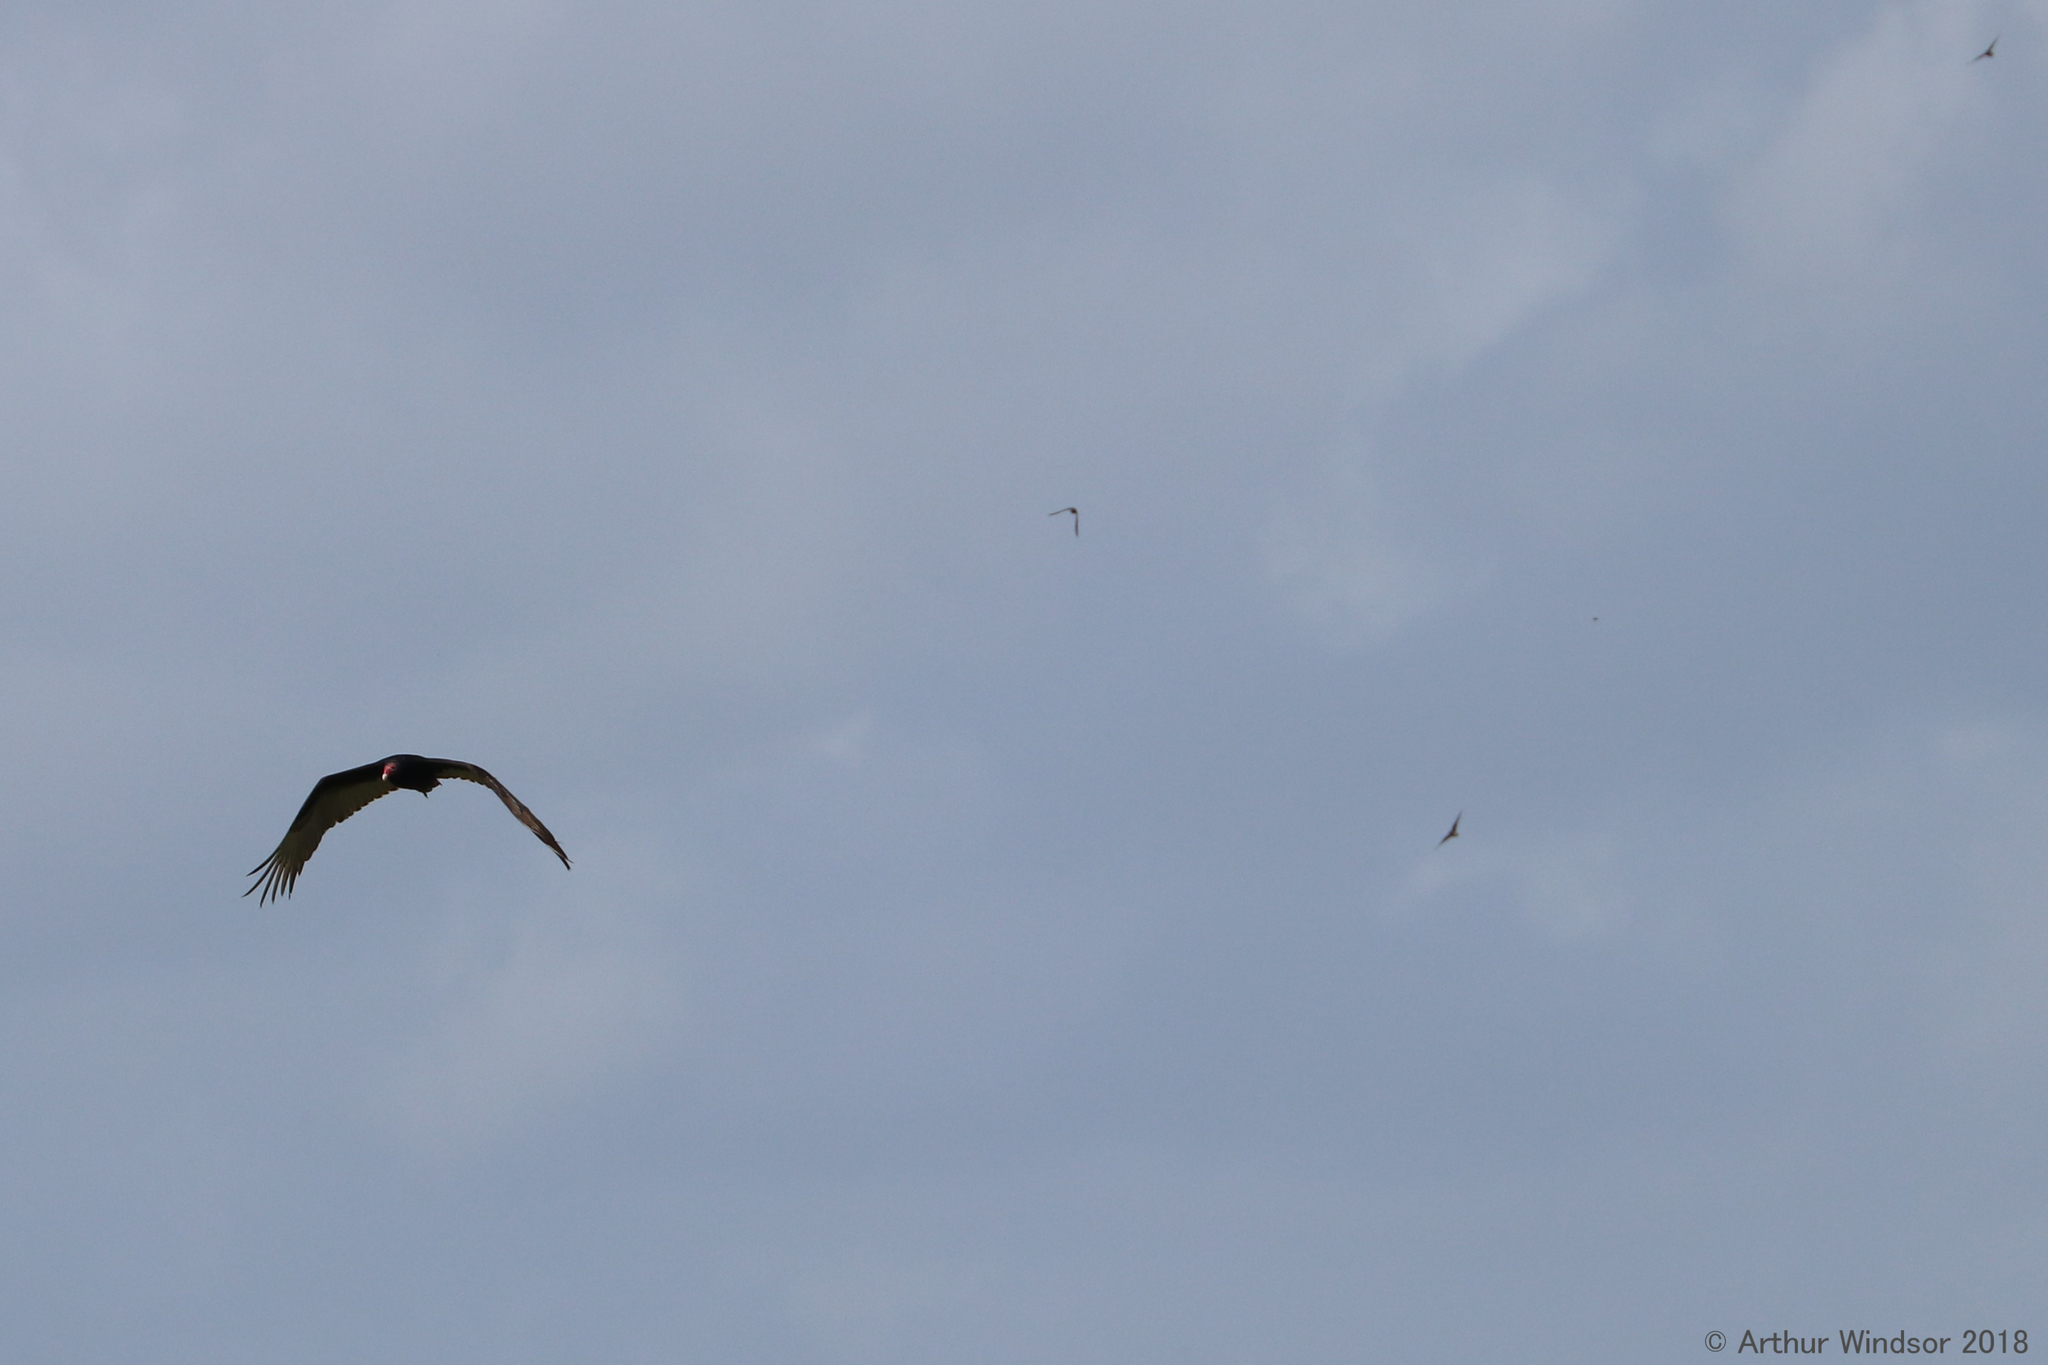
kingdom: Animalia
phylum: Chordata
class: Aves
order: Accipitriformes
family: Cathartidae
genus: Cathartes
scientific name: Cathartes aura
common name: Turkey vulture
